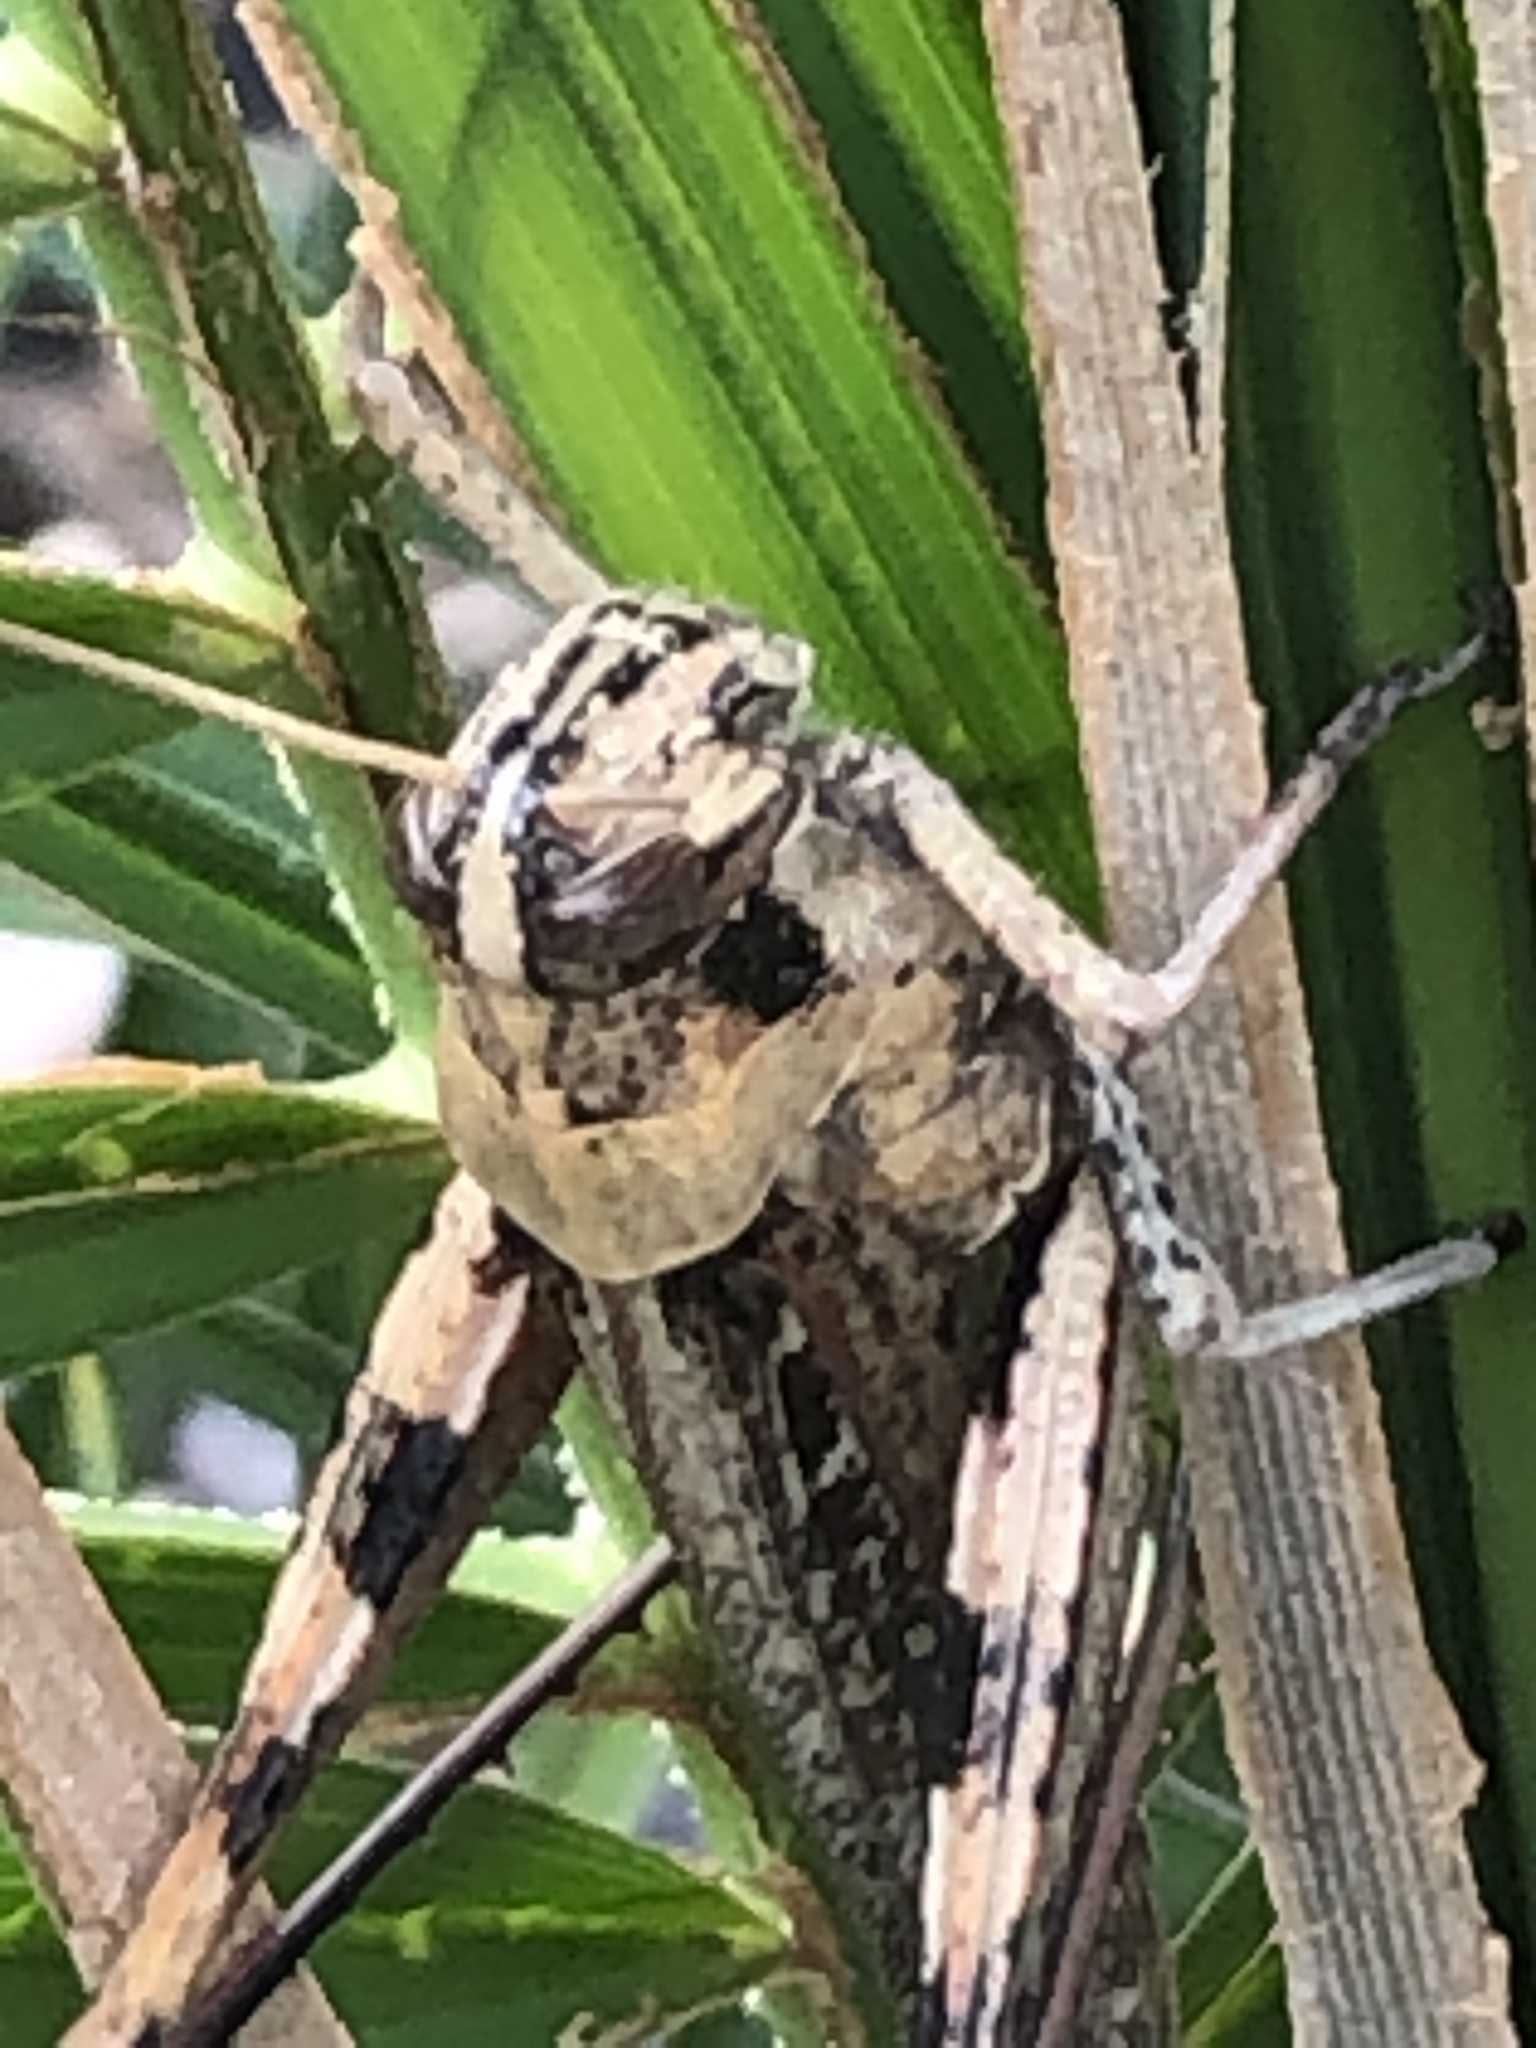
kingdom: Animalia
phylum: Arthropoda
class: Insecta
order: Orthoptera
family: Acrididae
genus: Schistocerca
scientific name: Schistocerca nitens
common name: Vagrant grasshopper
